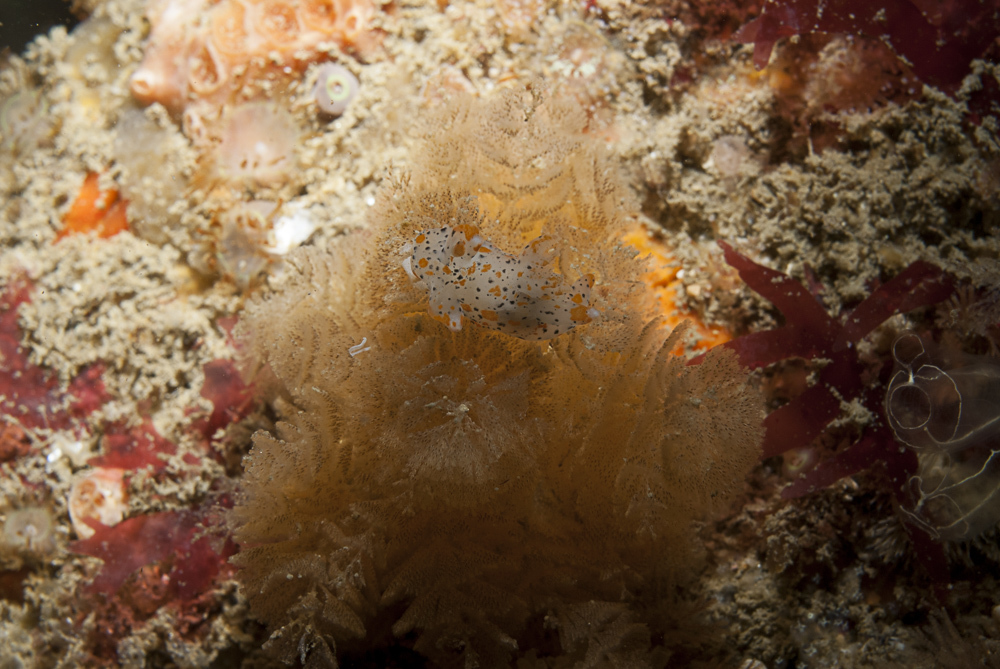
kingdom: Animalia
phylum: Mollusca
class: Gastropoda
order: Nudibranchia
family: Polyceridae
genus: Thecacera
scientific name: Thecacera pennigera
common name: Thecacera
